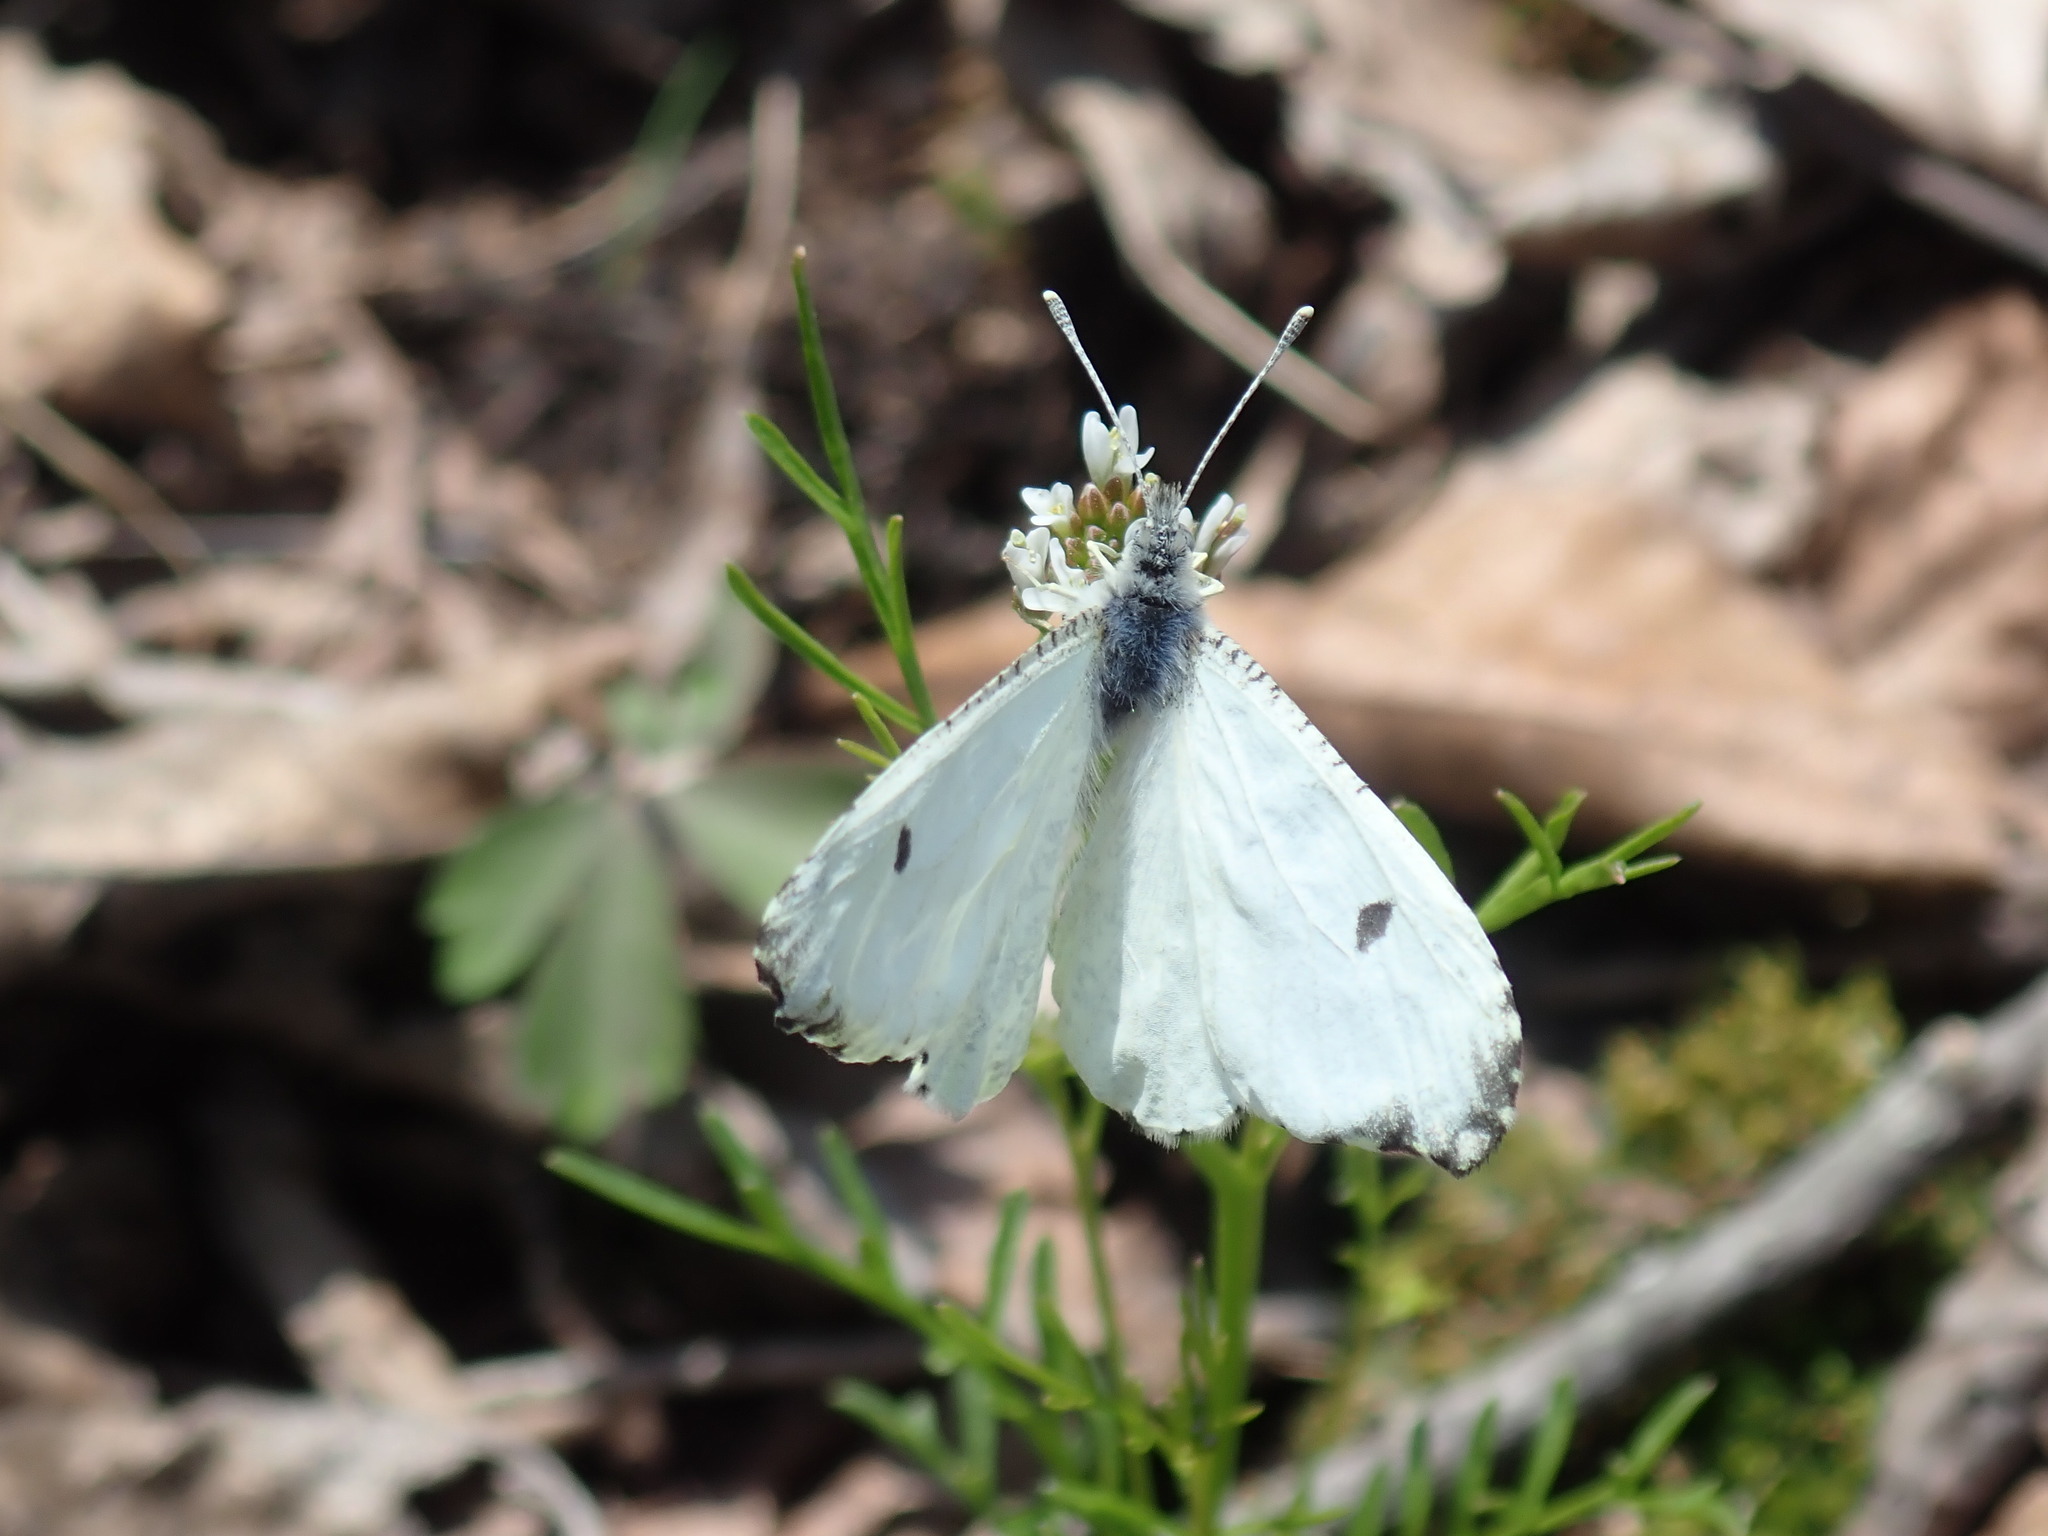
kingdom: Animalia
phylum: Arthropoda
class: Insecta
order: Lepidoptera
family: Pieridae
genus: Anthocharis
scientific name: Anthocharis midea
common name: Falcate orangetip
